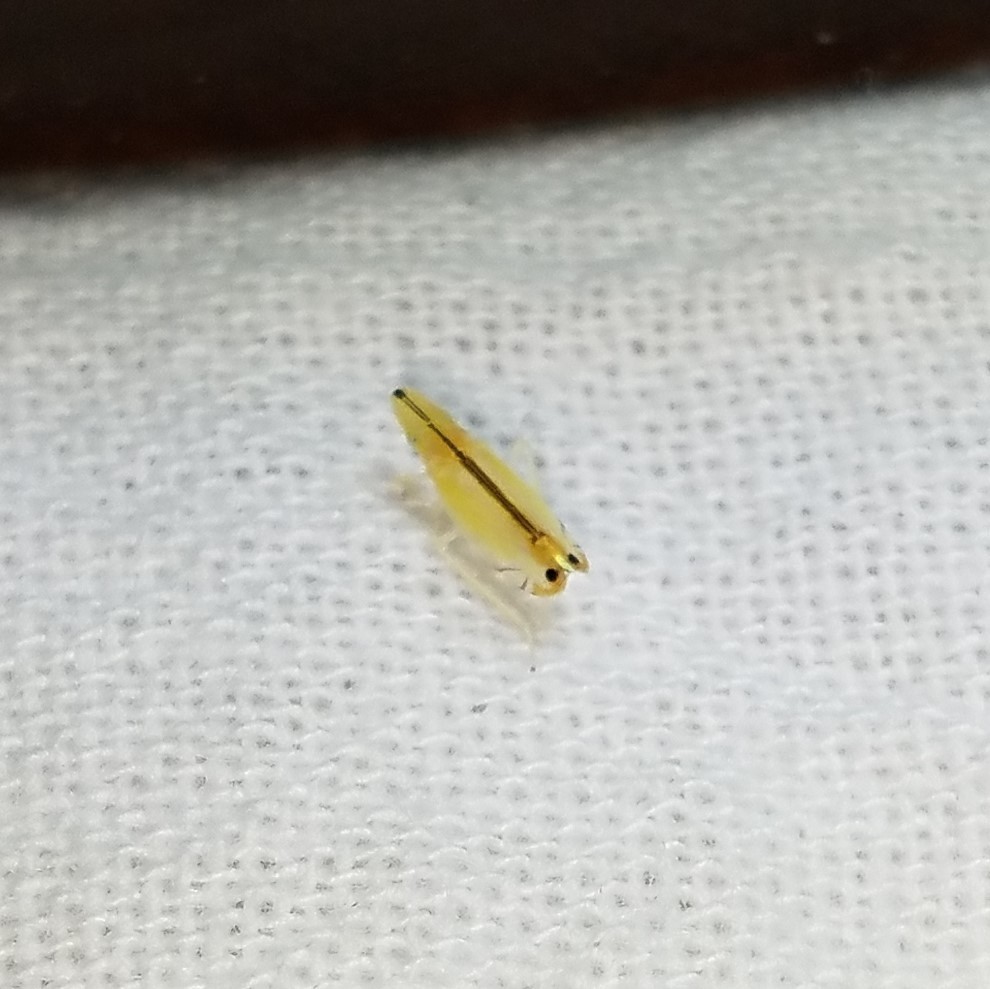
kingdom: Animalia
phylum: Arthropoda
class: Insecta
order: Hemiptera
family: Cicadellidae
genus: Sophonia
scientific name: Sophonia orientalis
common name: Two-spotted leafhopper
